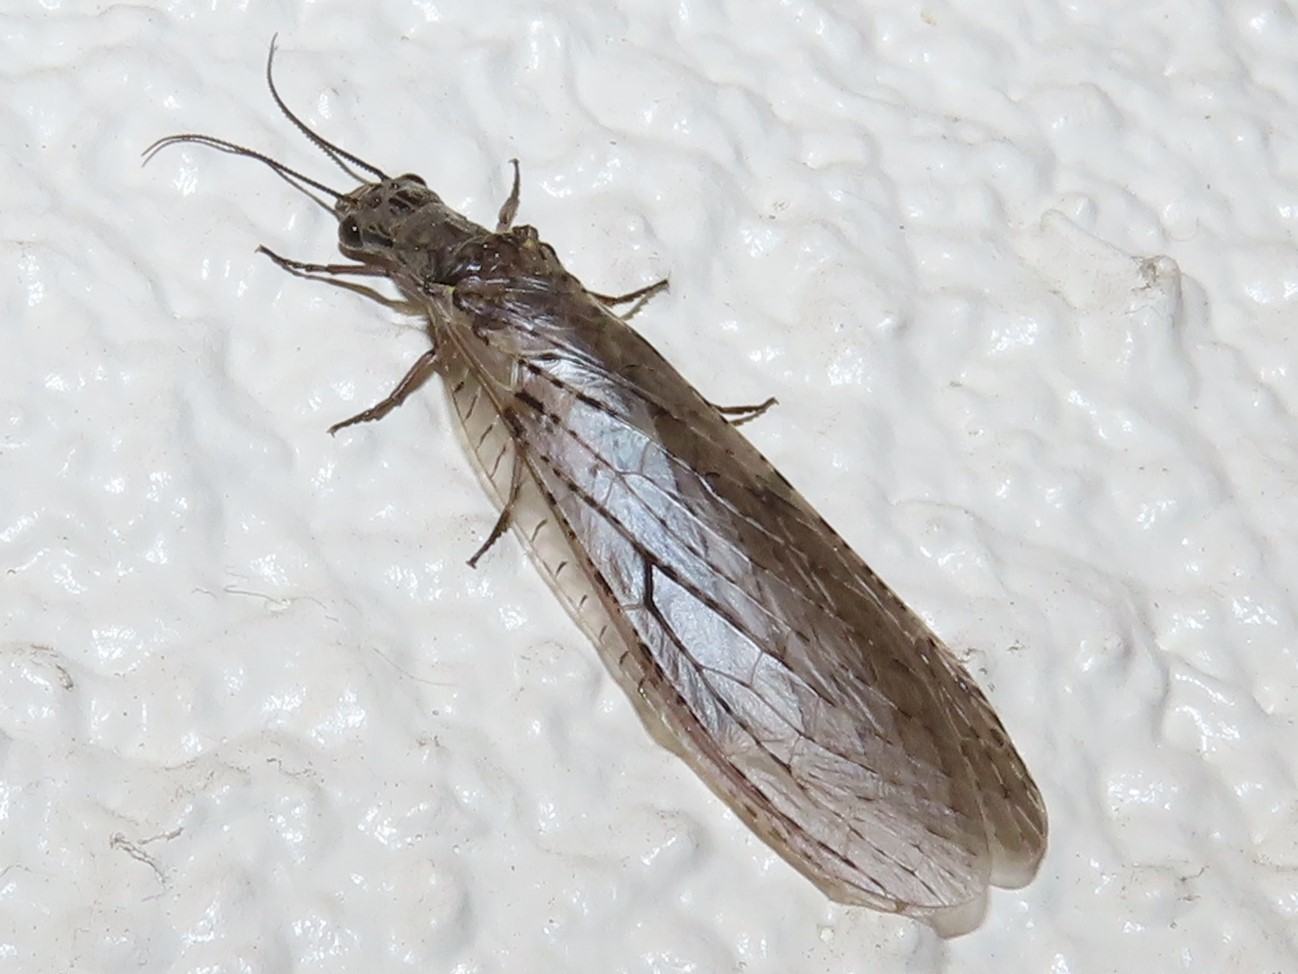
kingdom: Animalia
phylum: Arthropoda
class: Insecta
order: Megaloptera
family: Corydalidae
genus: Chauliodes
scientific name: Chauliodes rastricornis
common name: Spring fishfly
